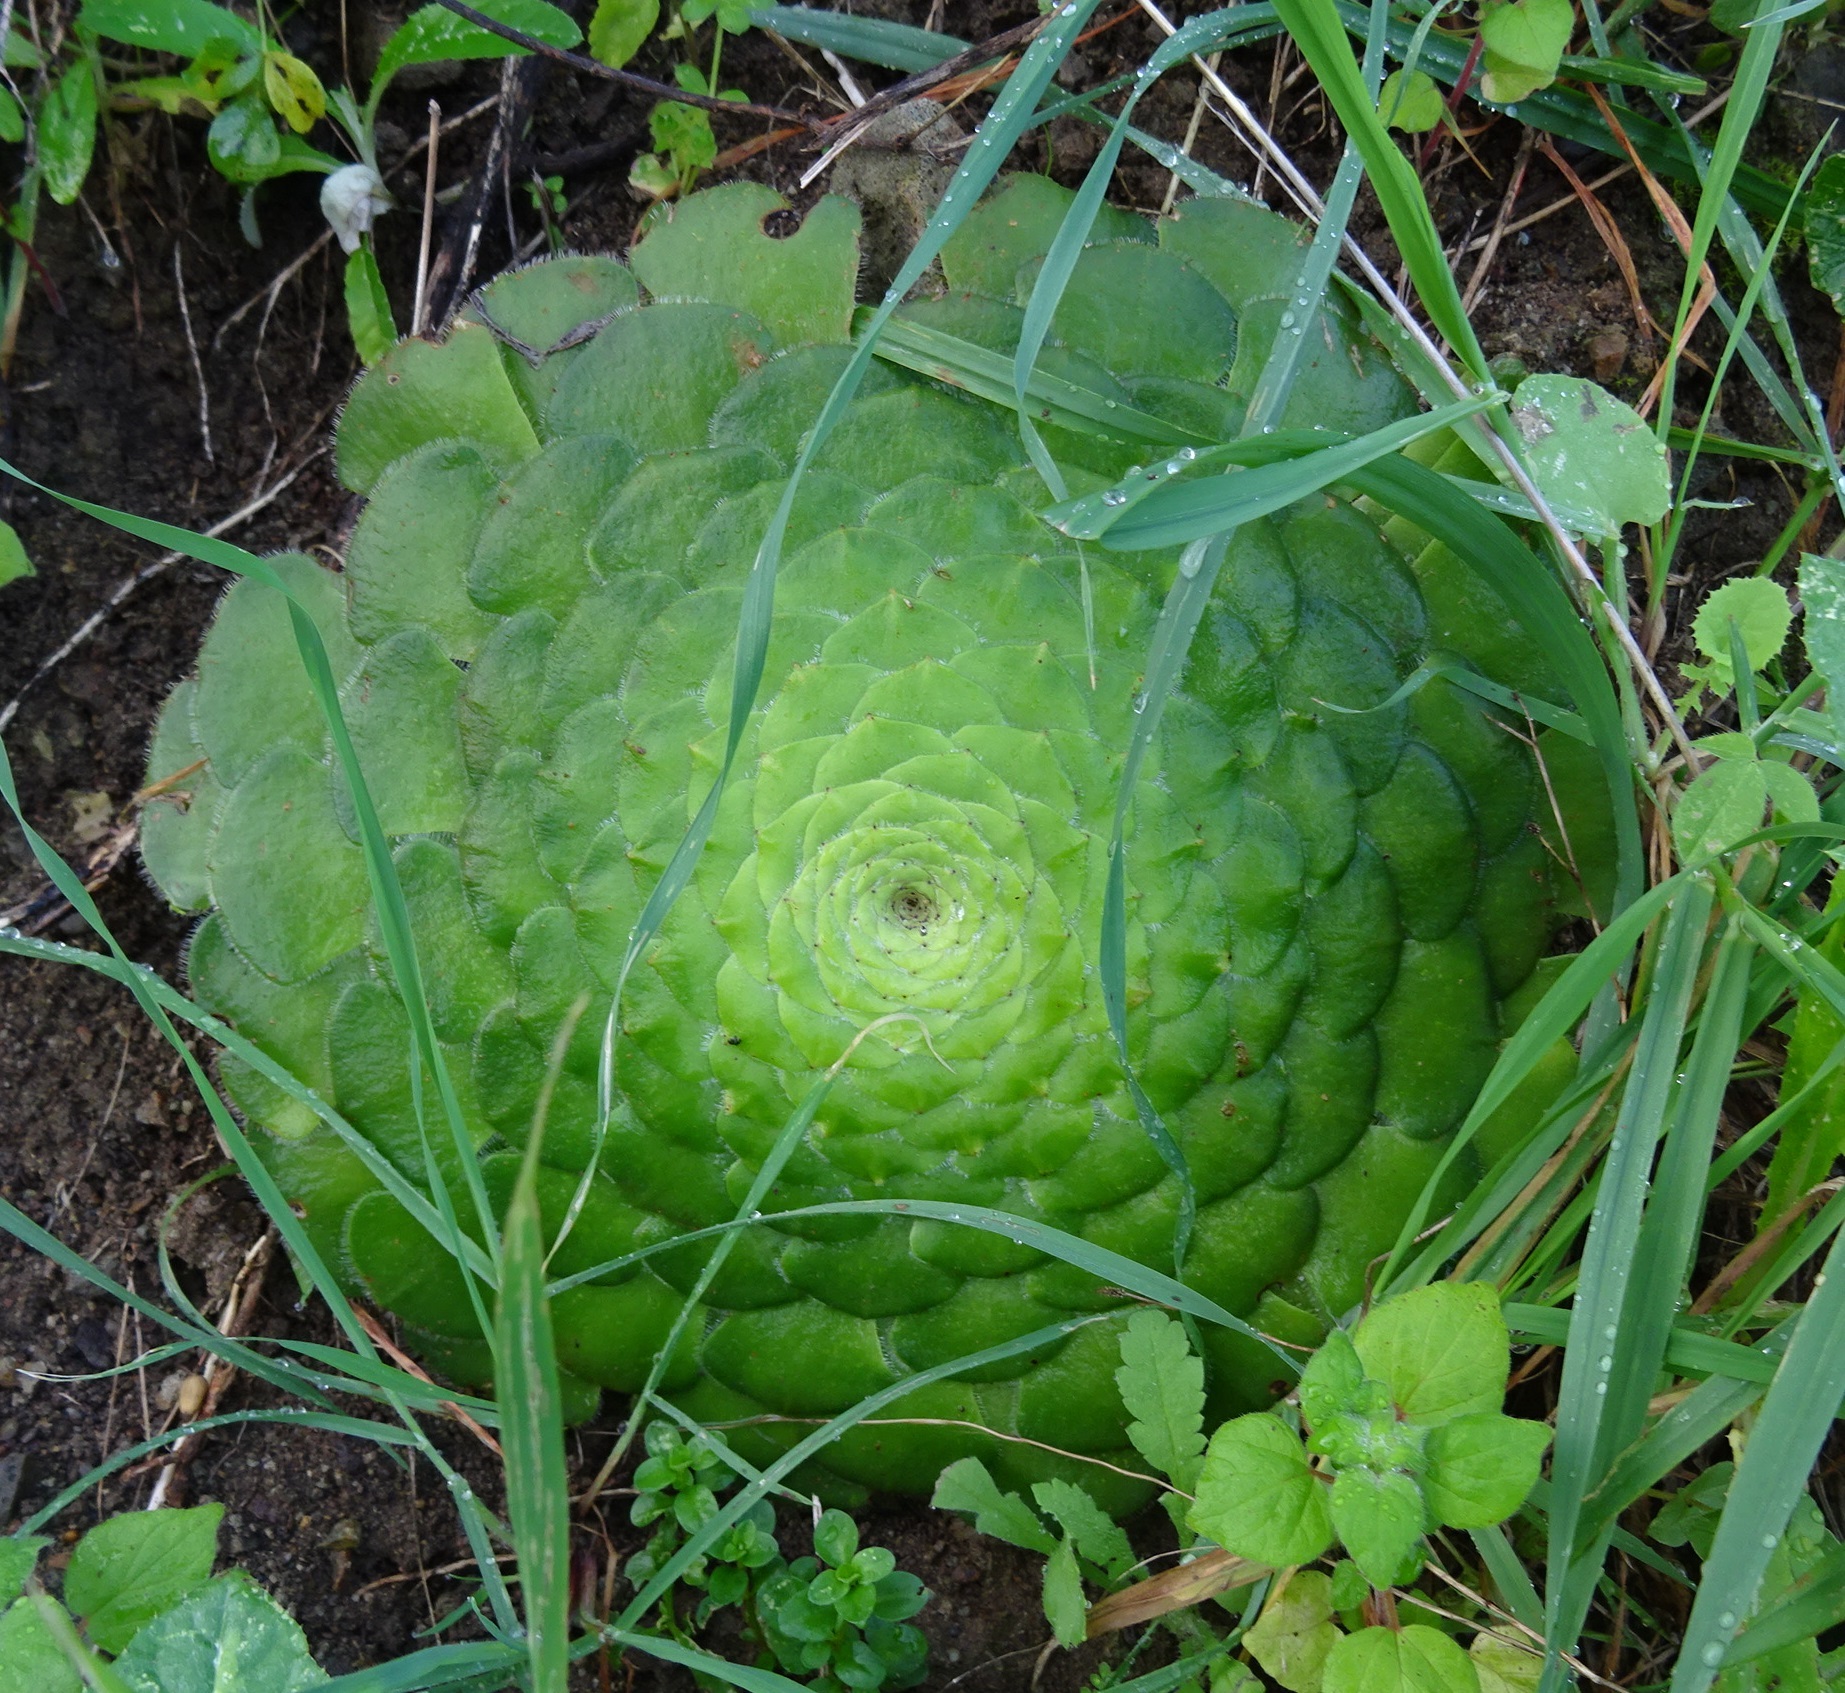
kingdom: Plantae
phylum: Tracheophyta
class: Magnoliopsida
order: Saxifragales
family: Crassulaceae
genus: Aeonium
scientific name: Aeonium tabulaeforme
